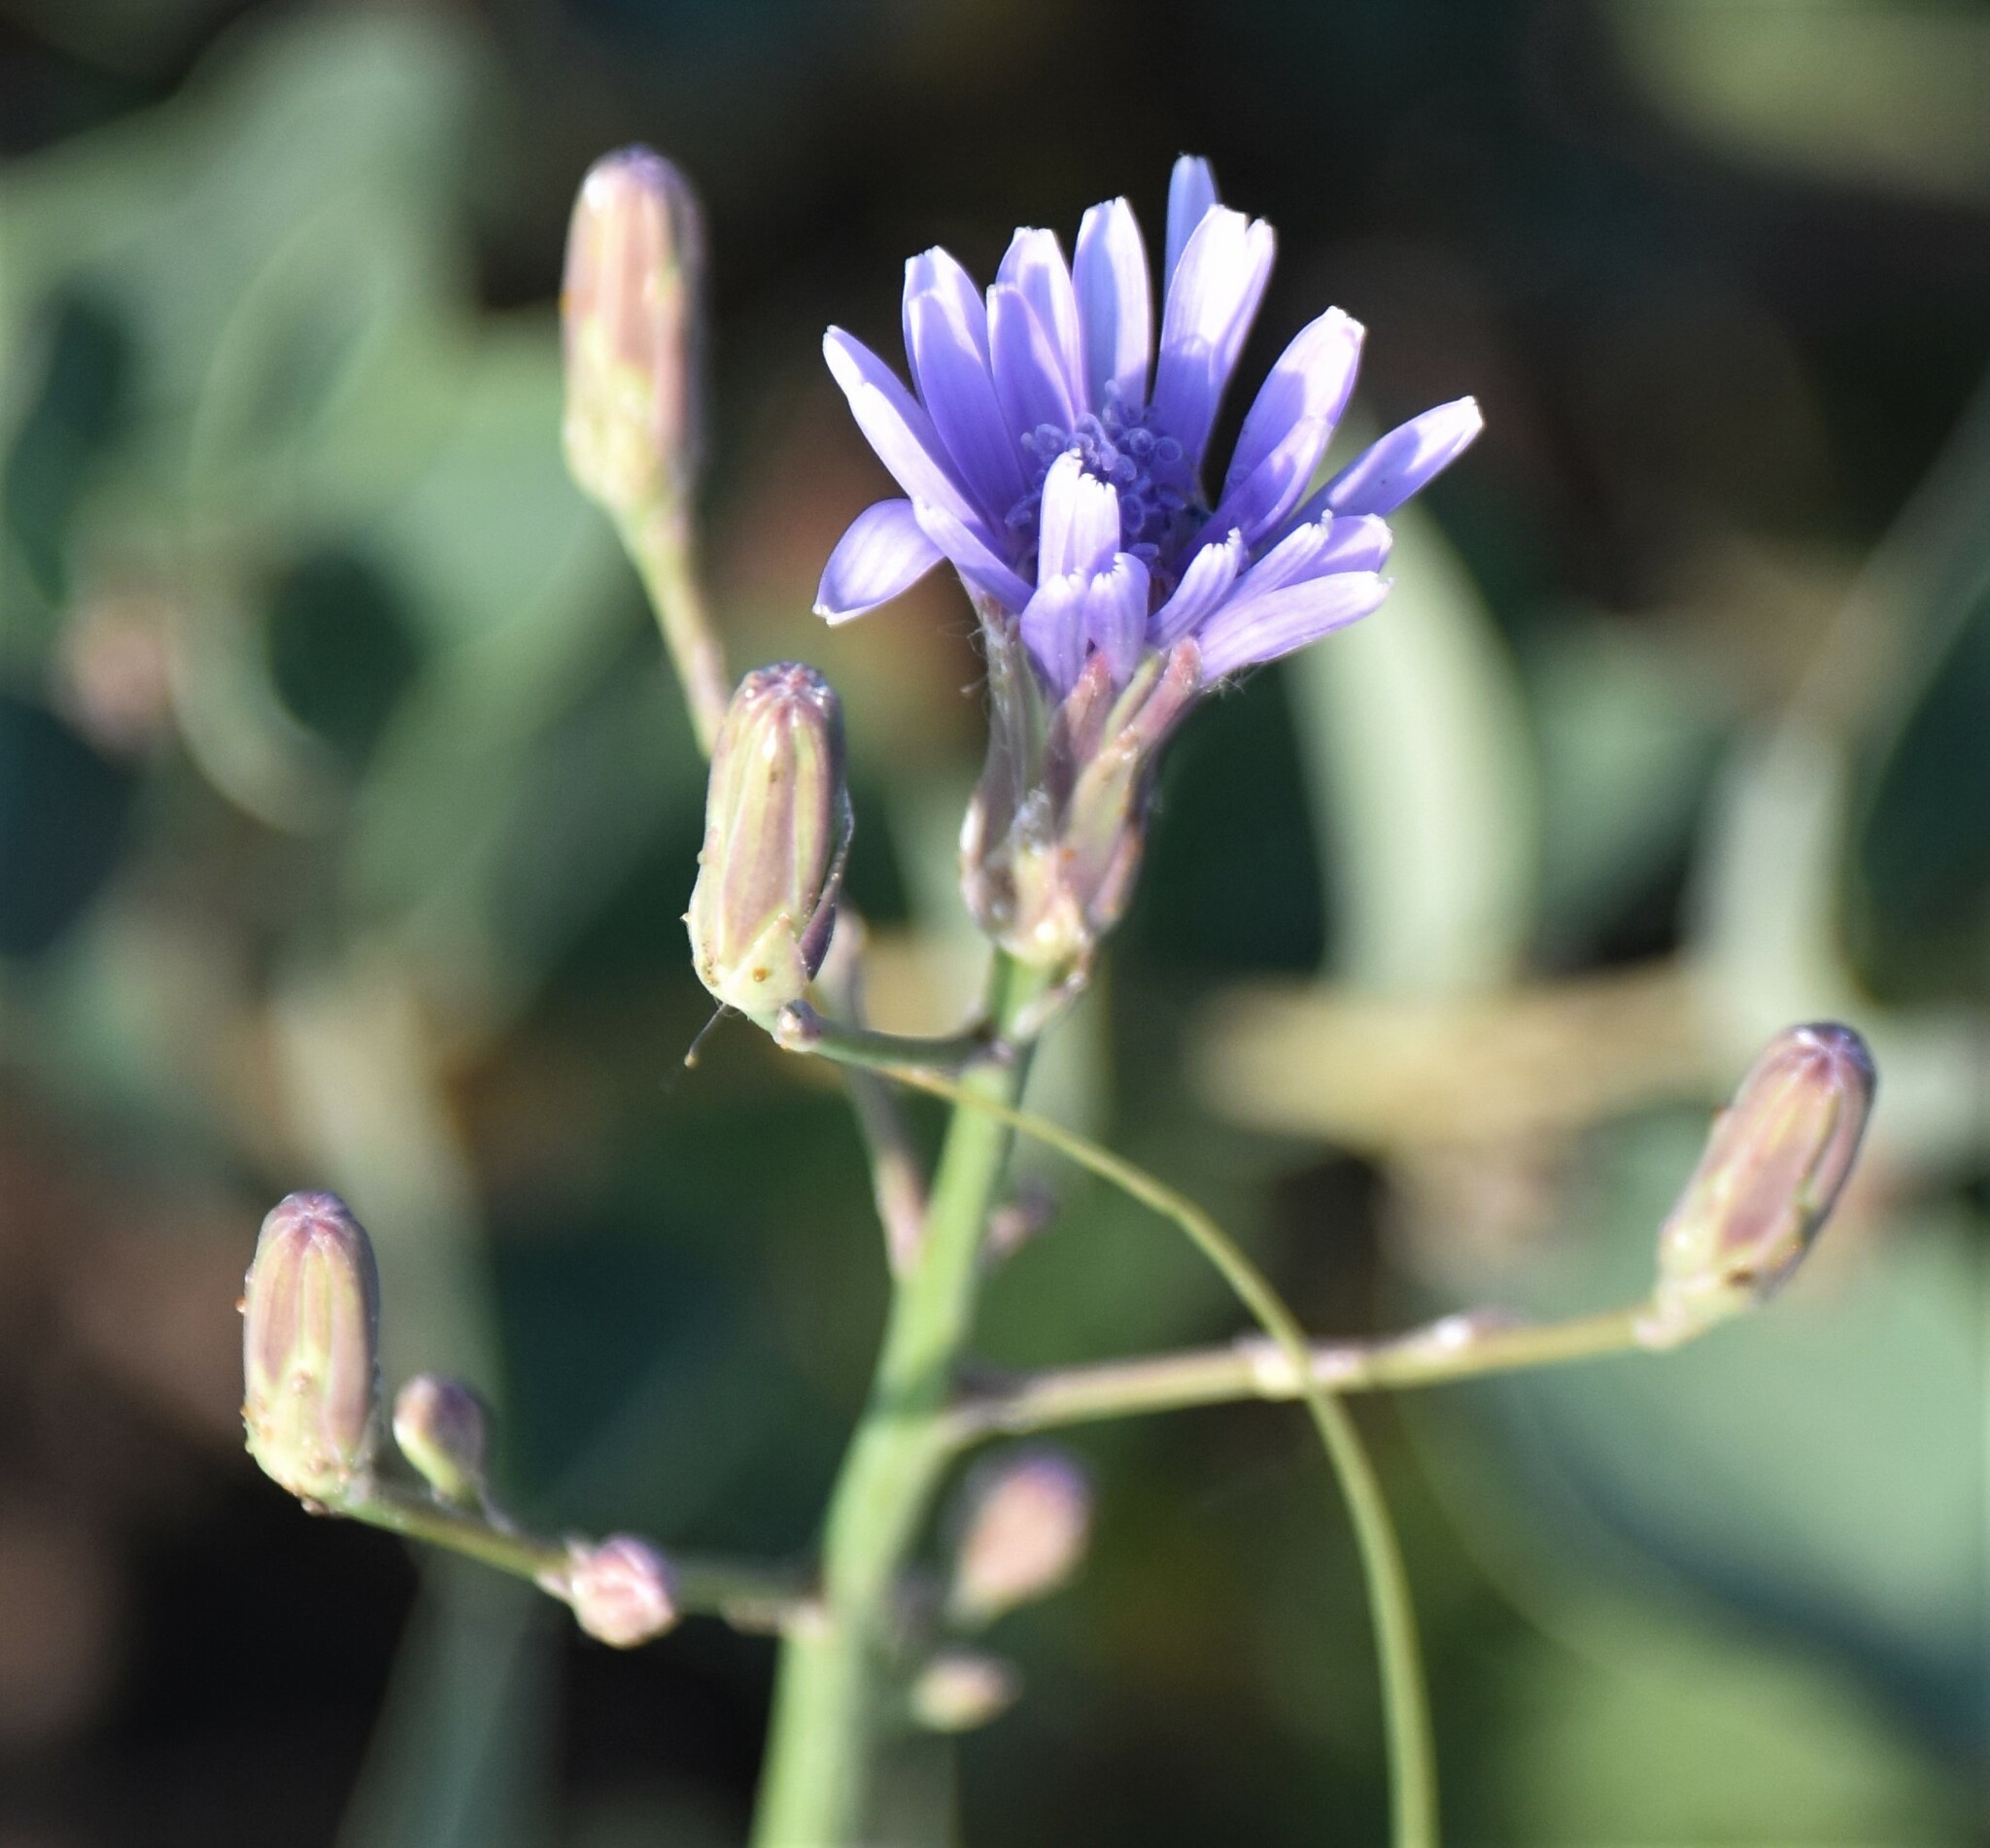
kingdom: Plantae
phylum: Tracheophyta
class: Magnoliopsida
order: Asterales
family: Asteraceae
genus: Lactuca
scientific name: Lactuca pulchella
